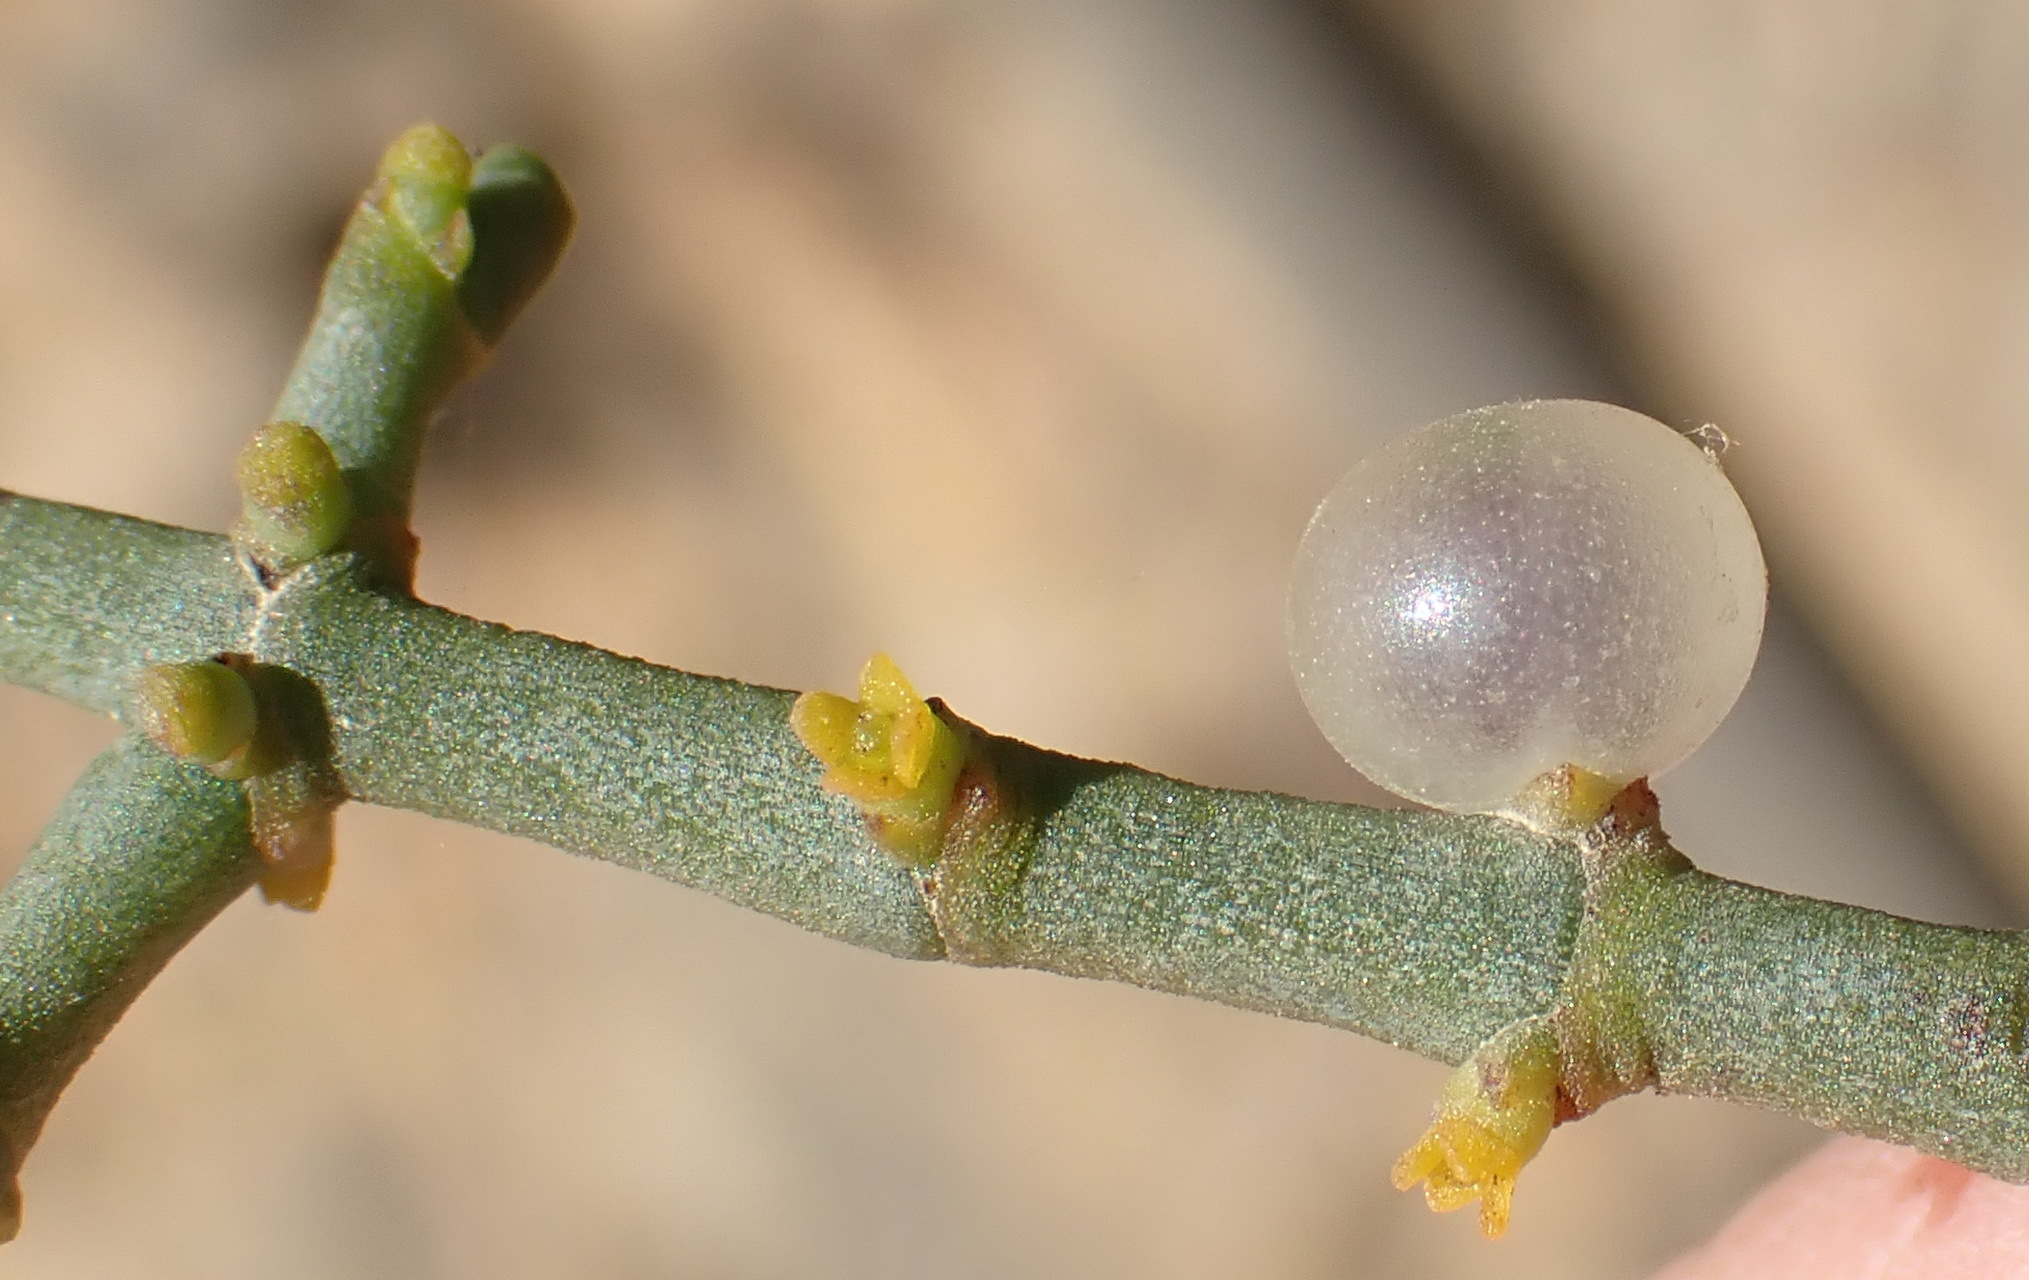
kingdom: Plantae
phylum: Tracheophyta
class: Magnoliopsida
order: Santalales
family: Viscaceae
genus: Viscum
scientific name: Viscum capense
